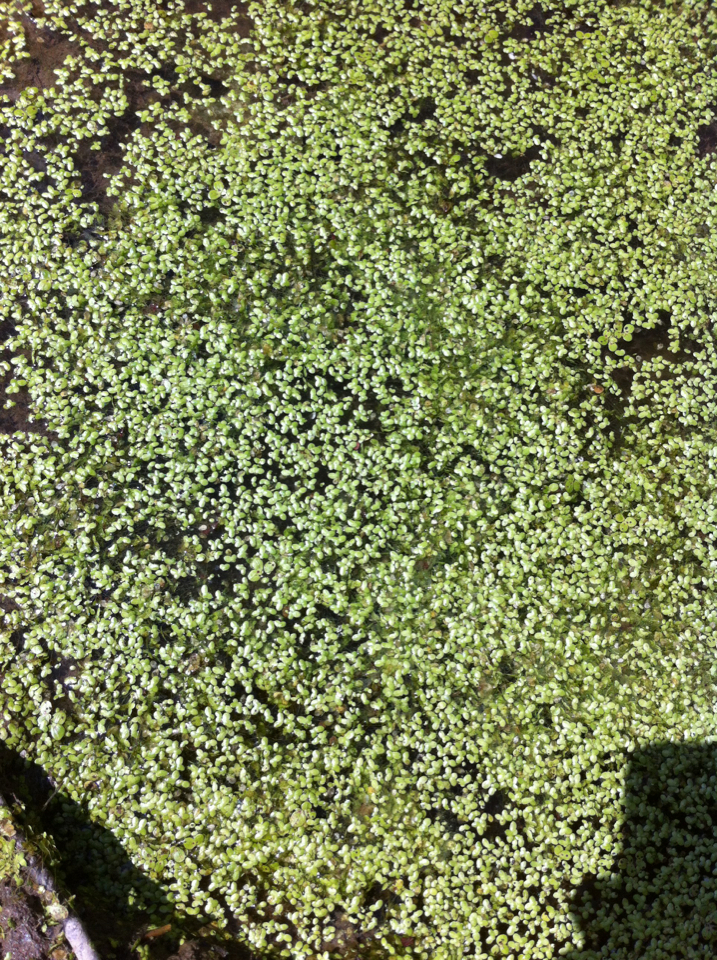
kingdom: Plantae
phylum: Tracheophyta
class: Liliopsida
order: Alismatales
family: Araceae
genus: Lemna
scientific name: Lemna
